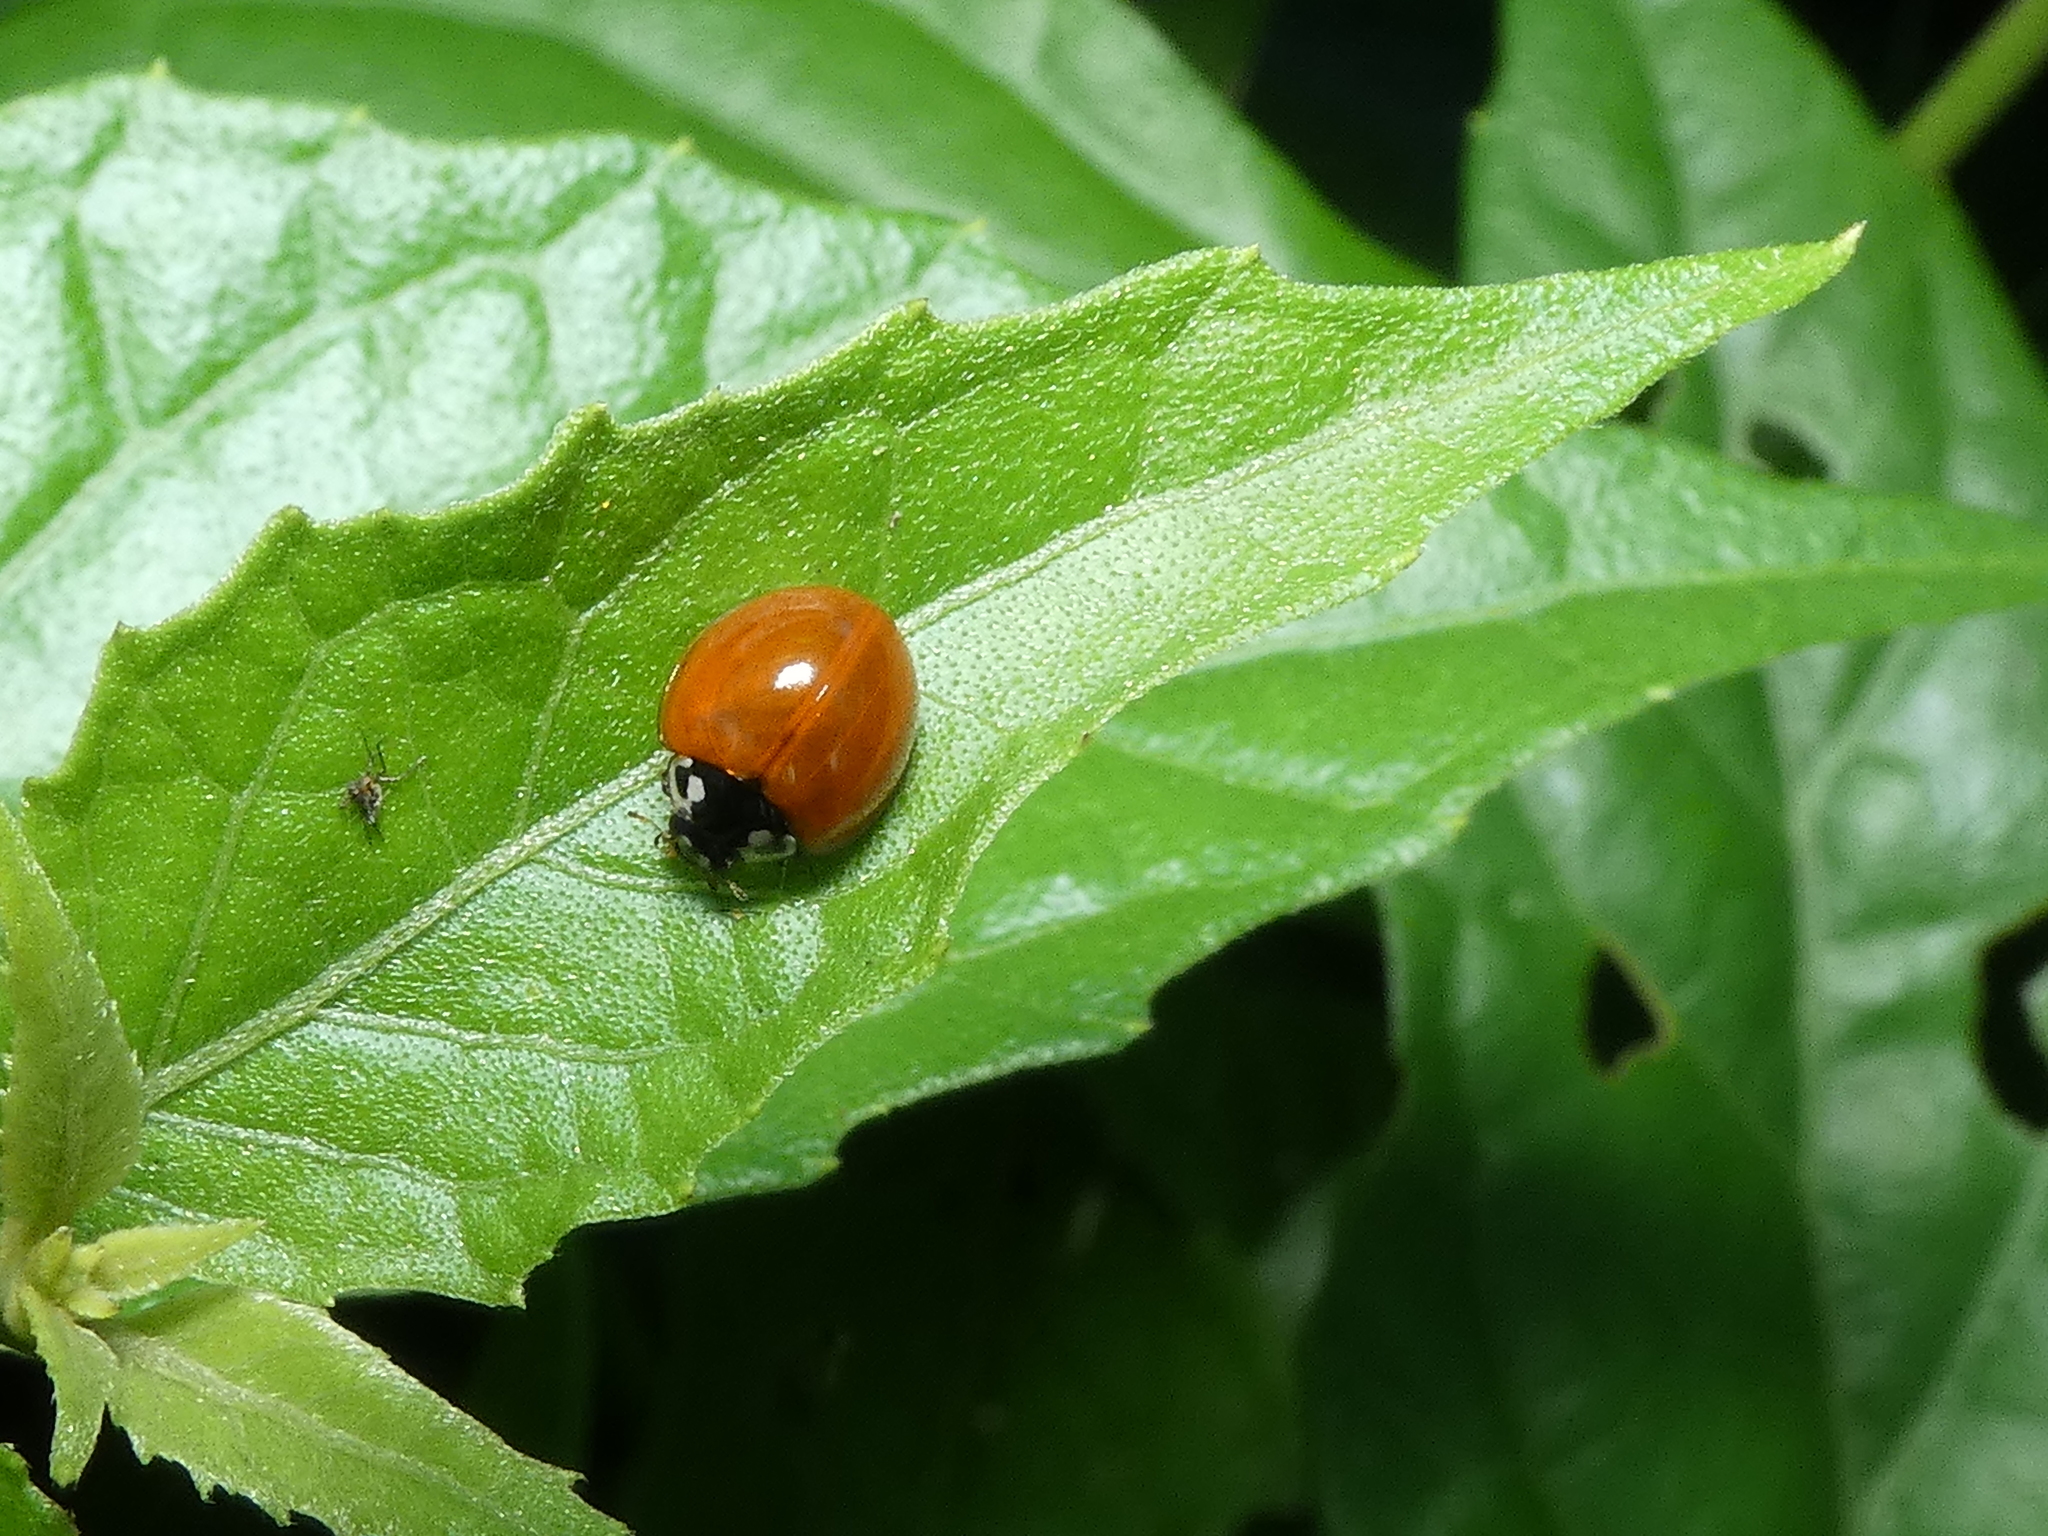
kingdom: Animalia
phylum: Arthropoda
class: Insecta
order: Coleoptera
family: Coccinellidae
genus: Cycloneda
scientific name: Cycloneda sanguinea
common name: Ladybird beetle
